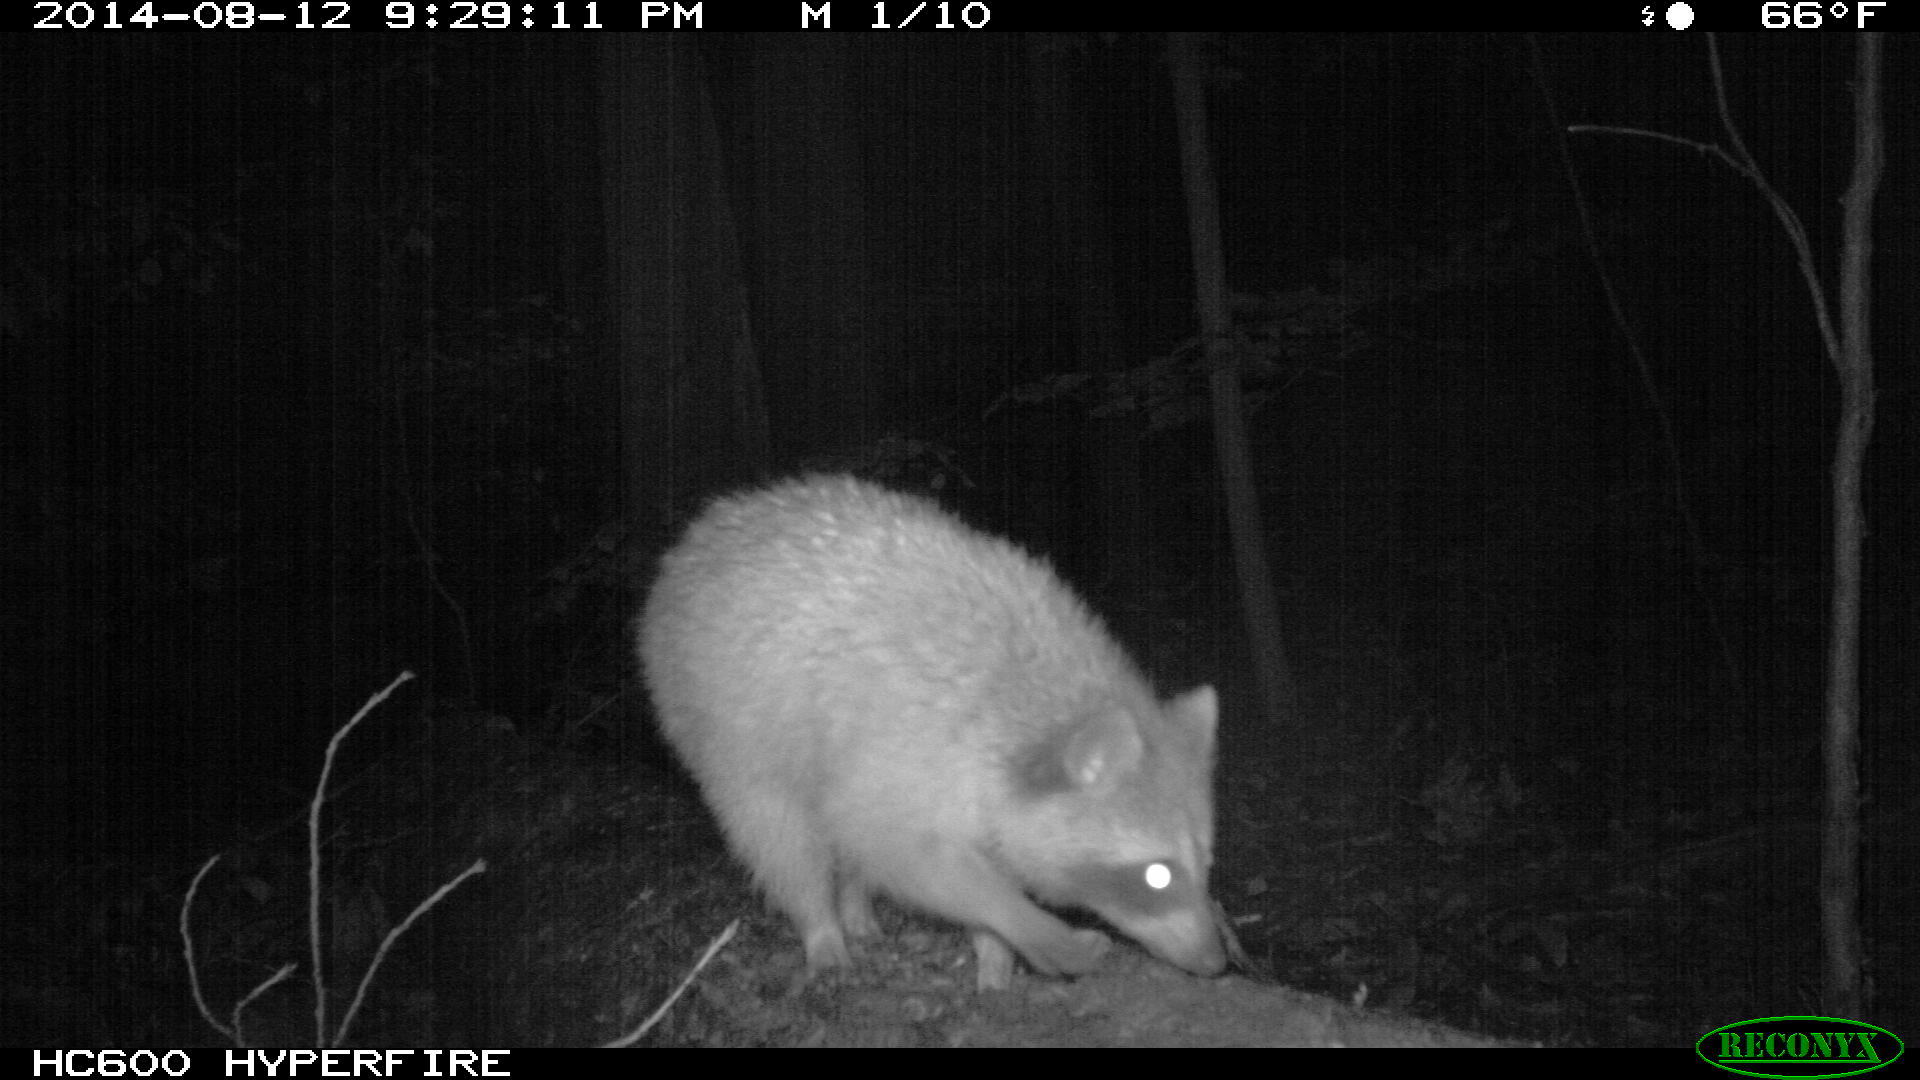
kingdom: Animalia
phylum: Chordata
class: Mammalia
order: Carnivora
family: Procyonidae
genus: Procyon
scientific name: Procyon lotor
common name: Raccoon
